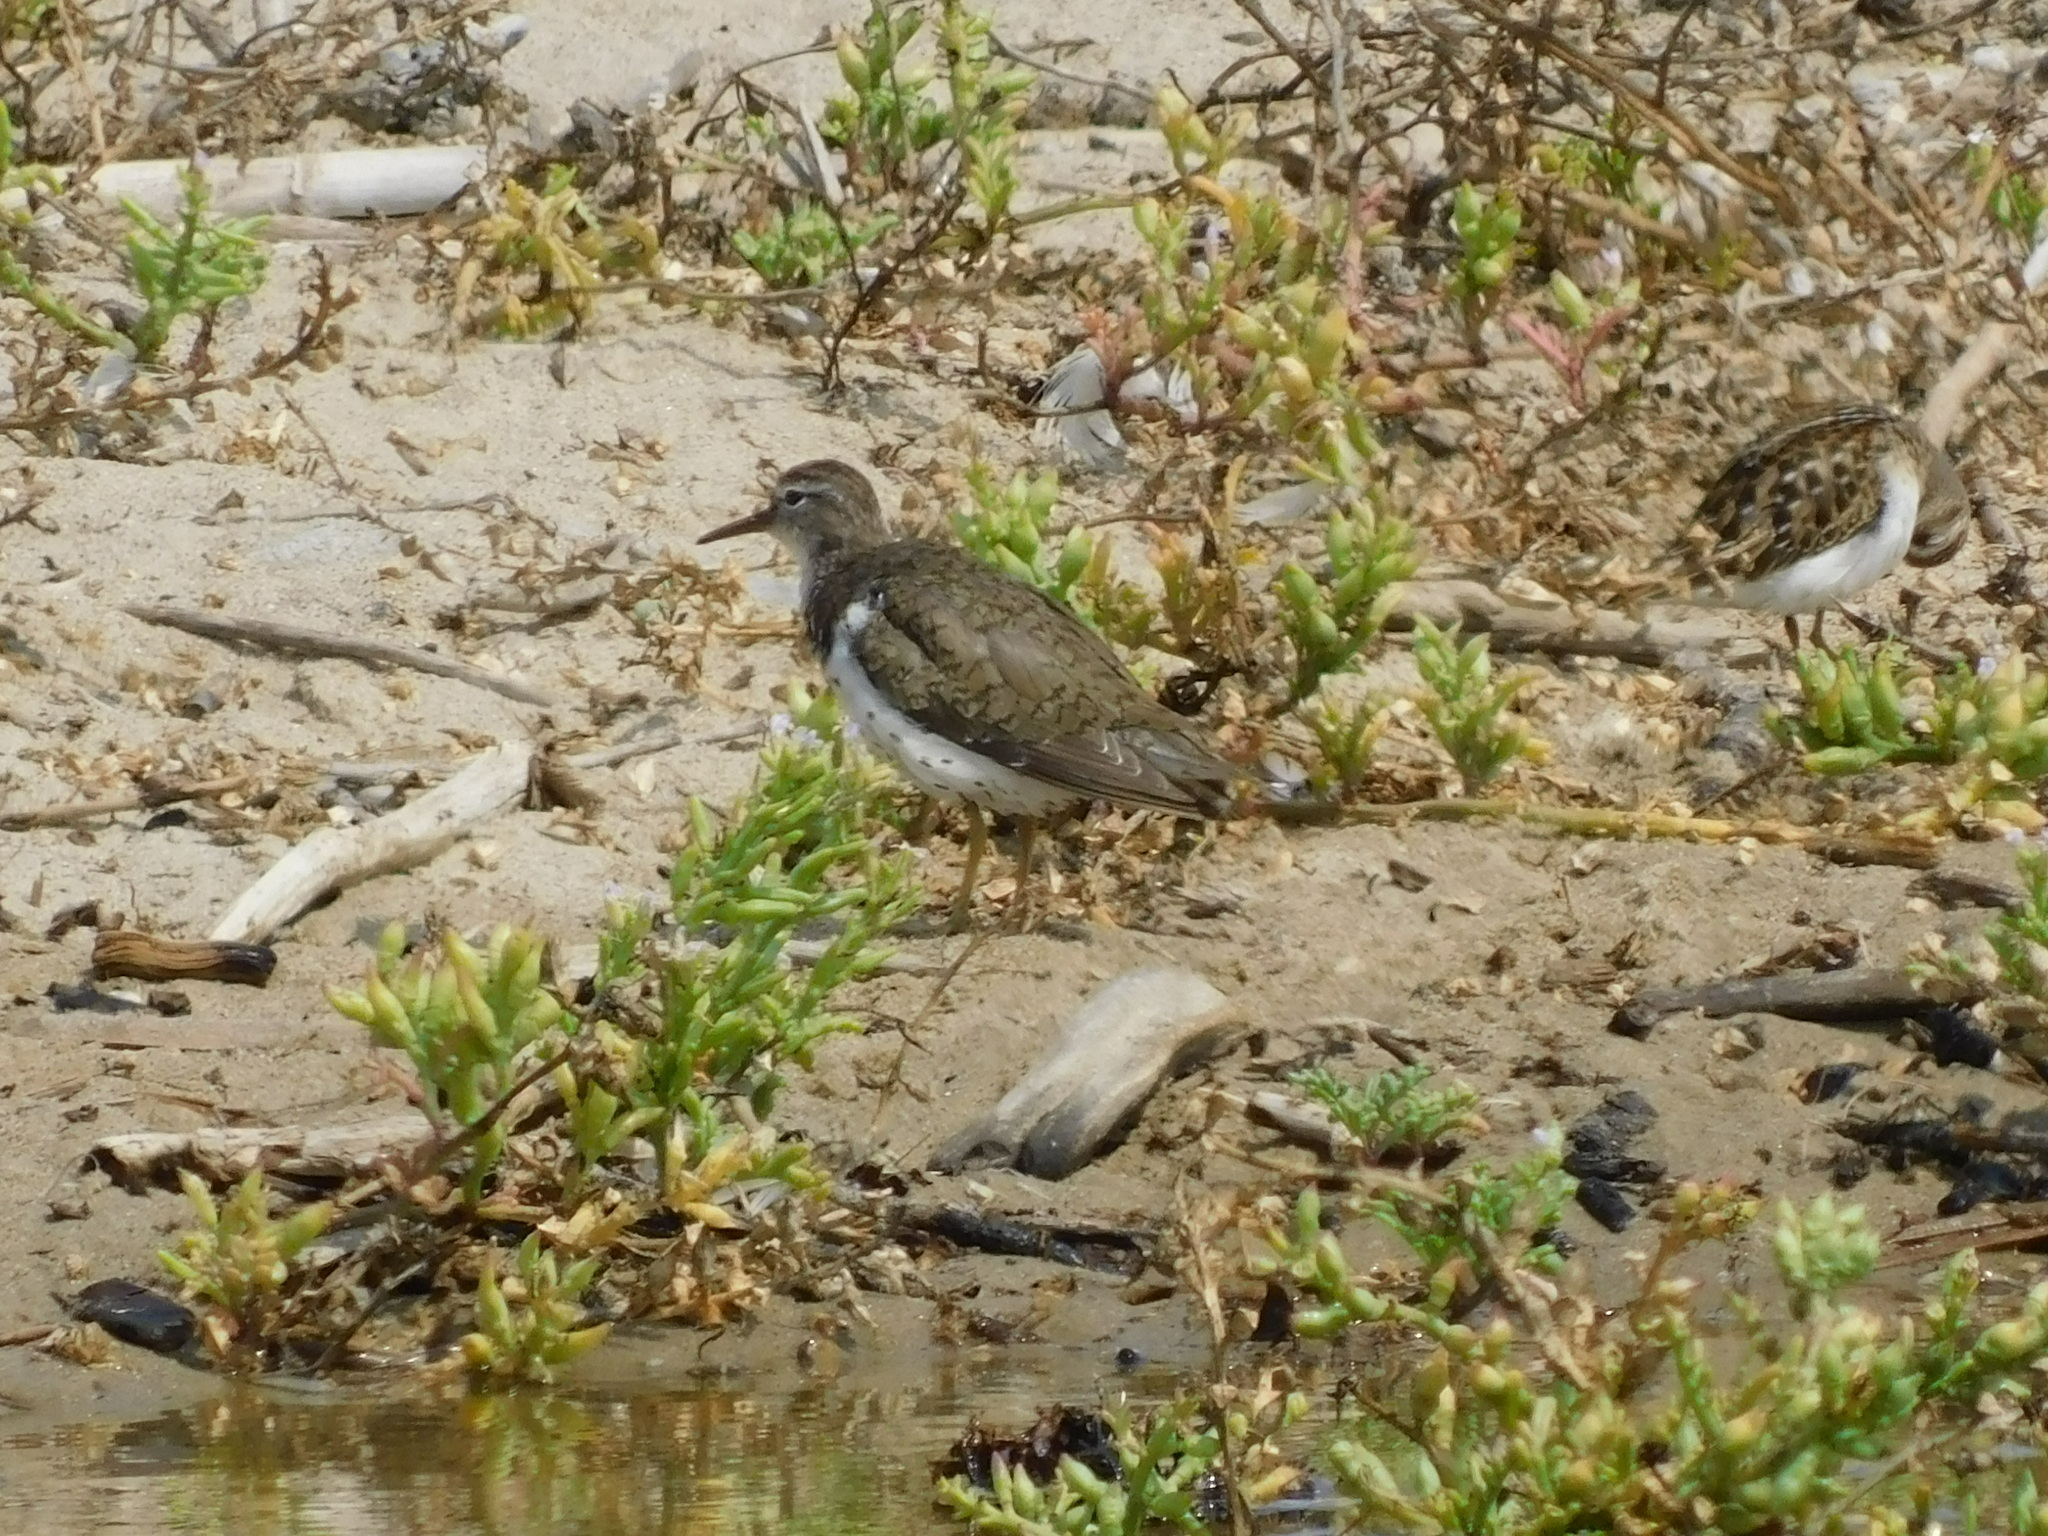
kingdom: Animalia
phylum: Chordata
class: Aves
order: Charadriiformes
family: Scolopacidae
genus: Actitis
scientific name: Actitis macularius
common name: Spotted sandpiper
